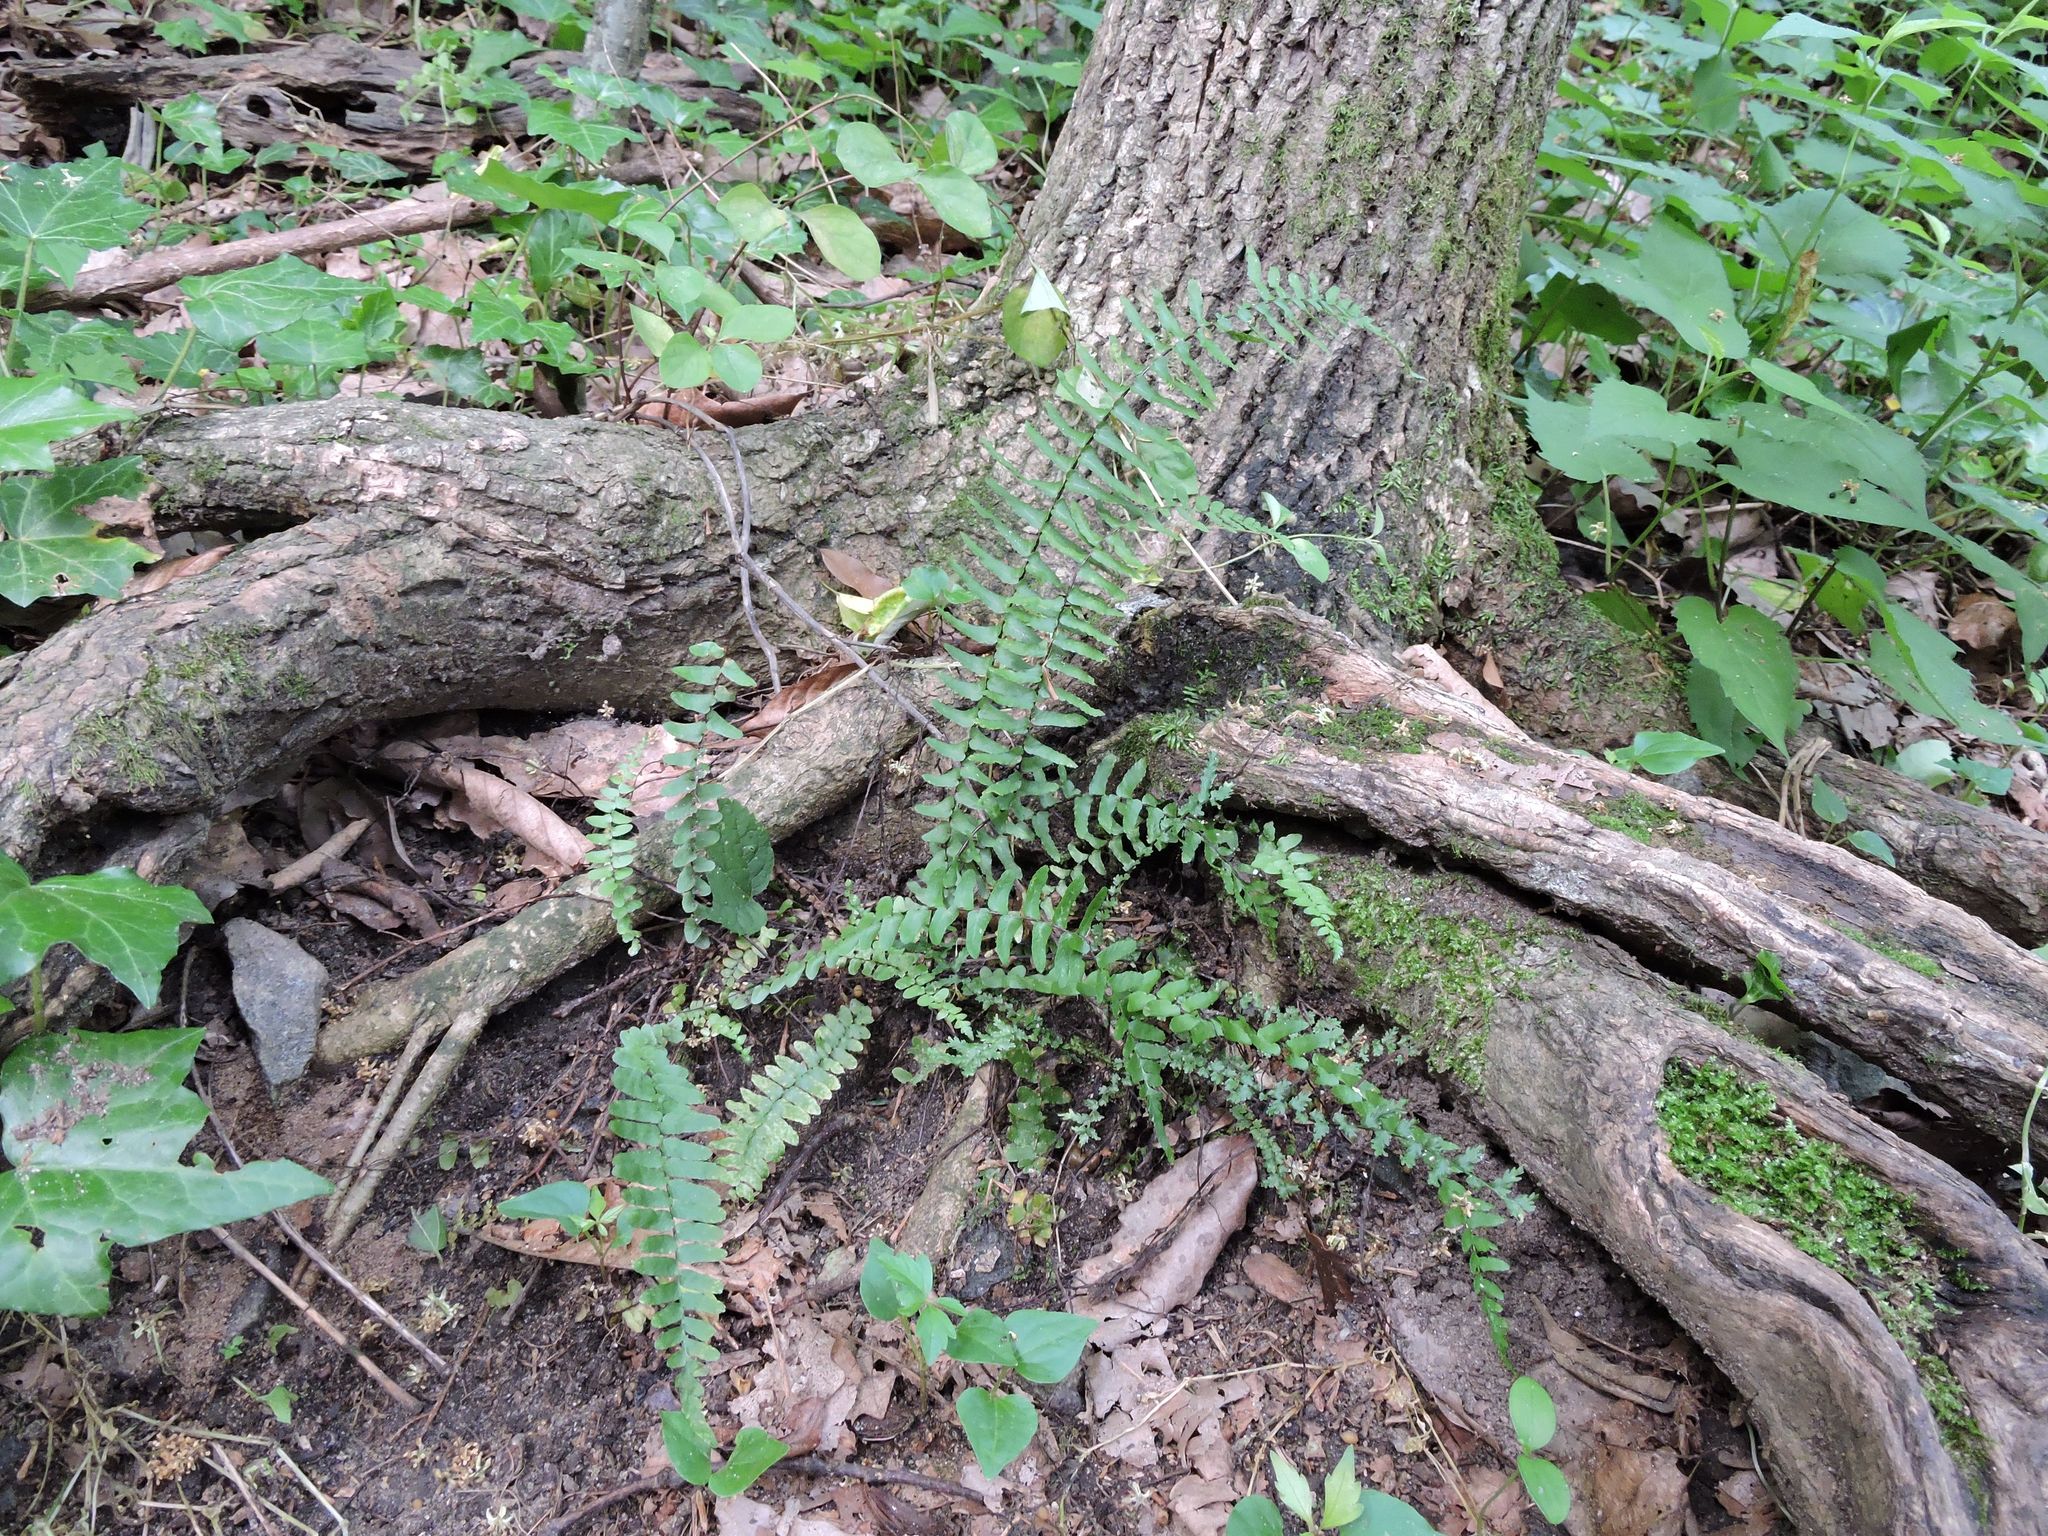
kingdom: Plantae
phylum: Tracheophyta
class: Polypodiopsida
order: Polypodiales
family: Aspleniaceae
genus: Asplenium
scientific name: Asplenium platyneuron
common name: Ebony spleenwort
